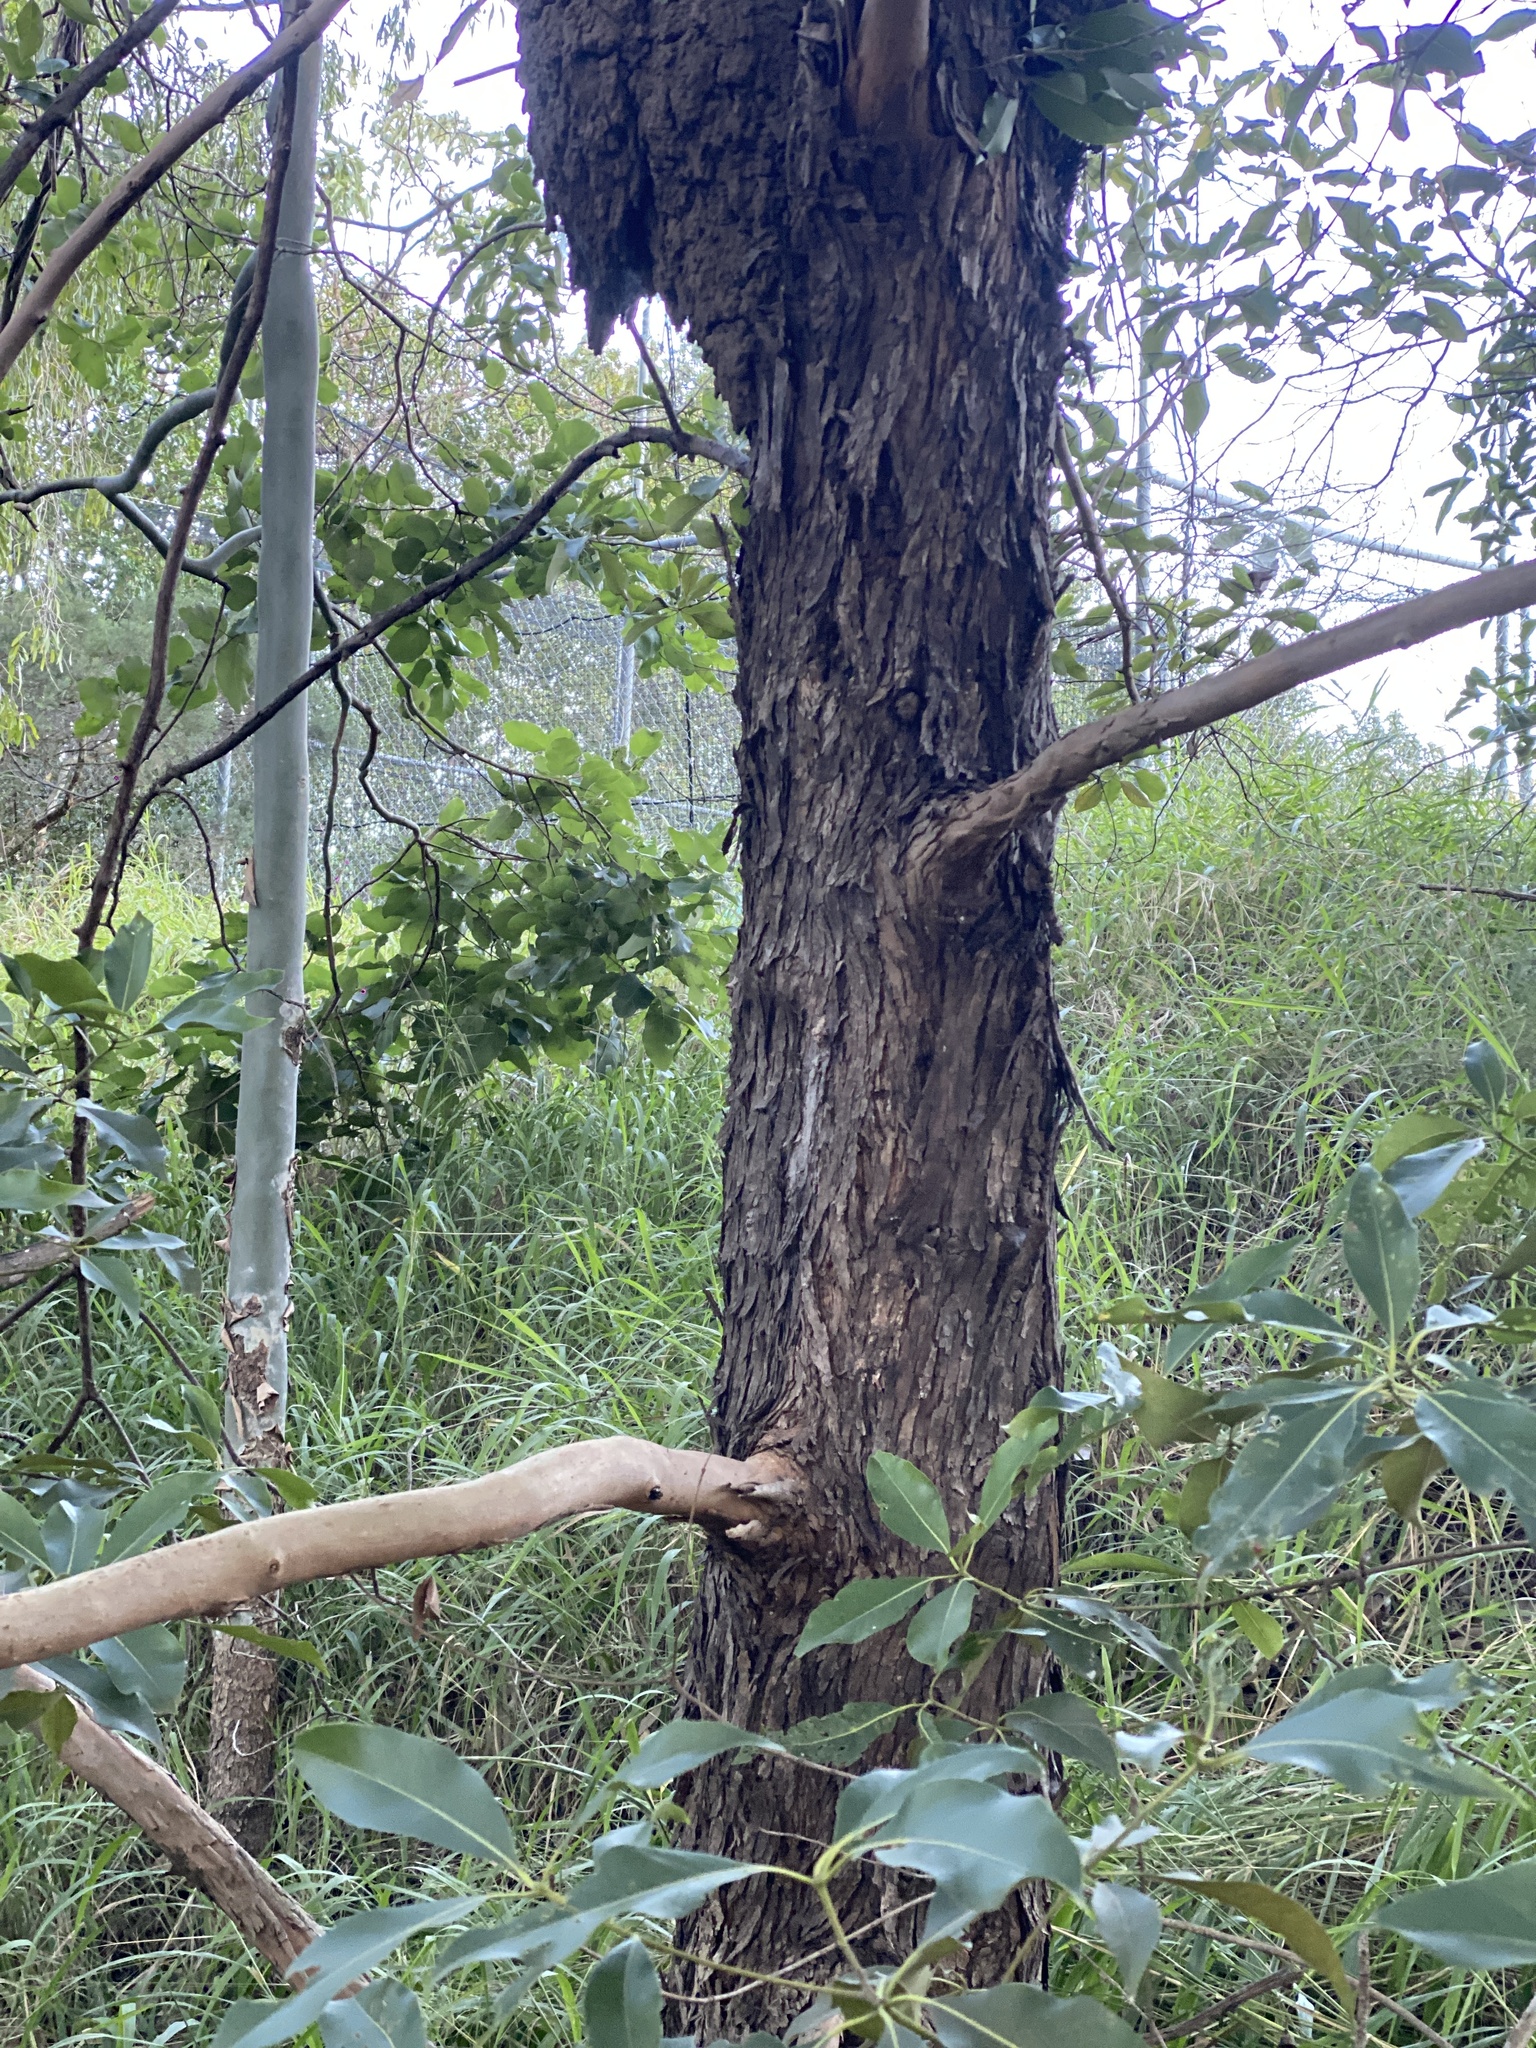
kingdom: Plantae
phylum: Tracheophyta
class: Magnoliopsida
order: Myrtales
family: Myrtaceae
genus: Lophostemon
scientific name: Lophostemon confertus
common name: Brisbane box
